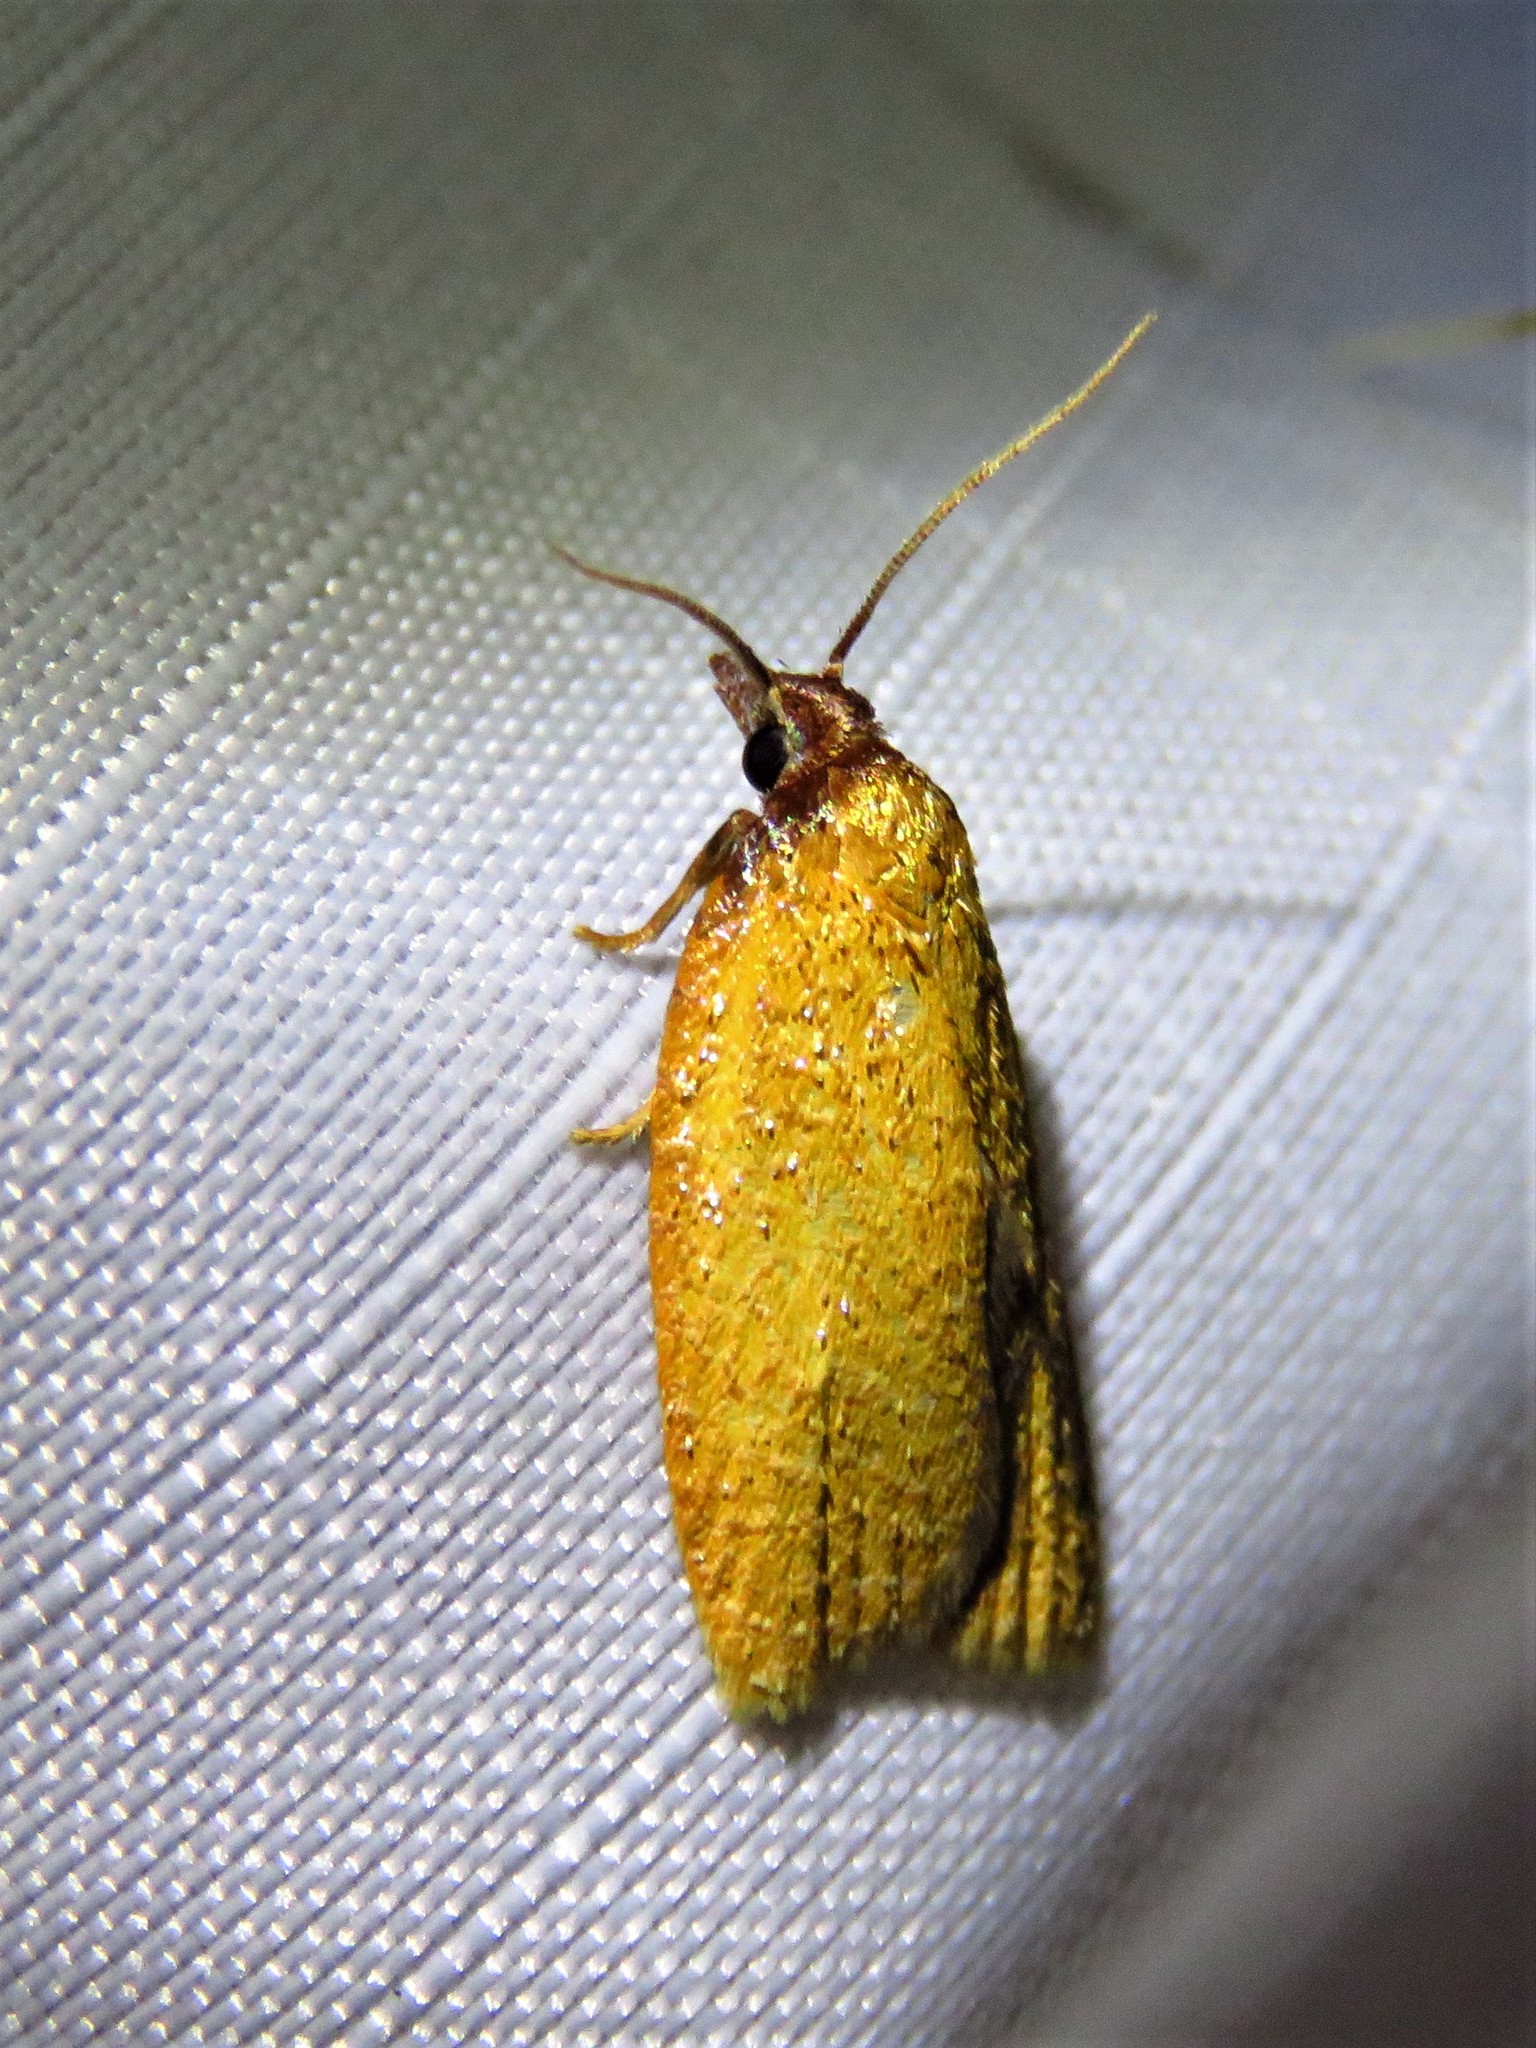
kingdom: Animalia
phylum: Arthropoda
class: Insecta
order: Lepidoptera
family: Tortricidae
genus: Sparganothis
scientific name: Sparganothis distincta
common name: Distinct sparganothis moth
